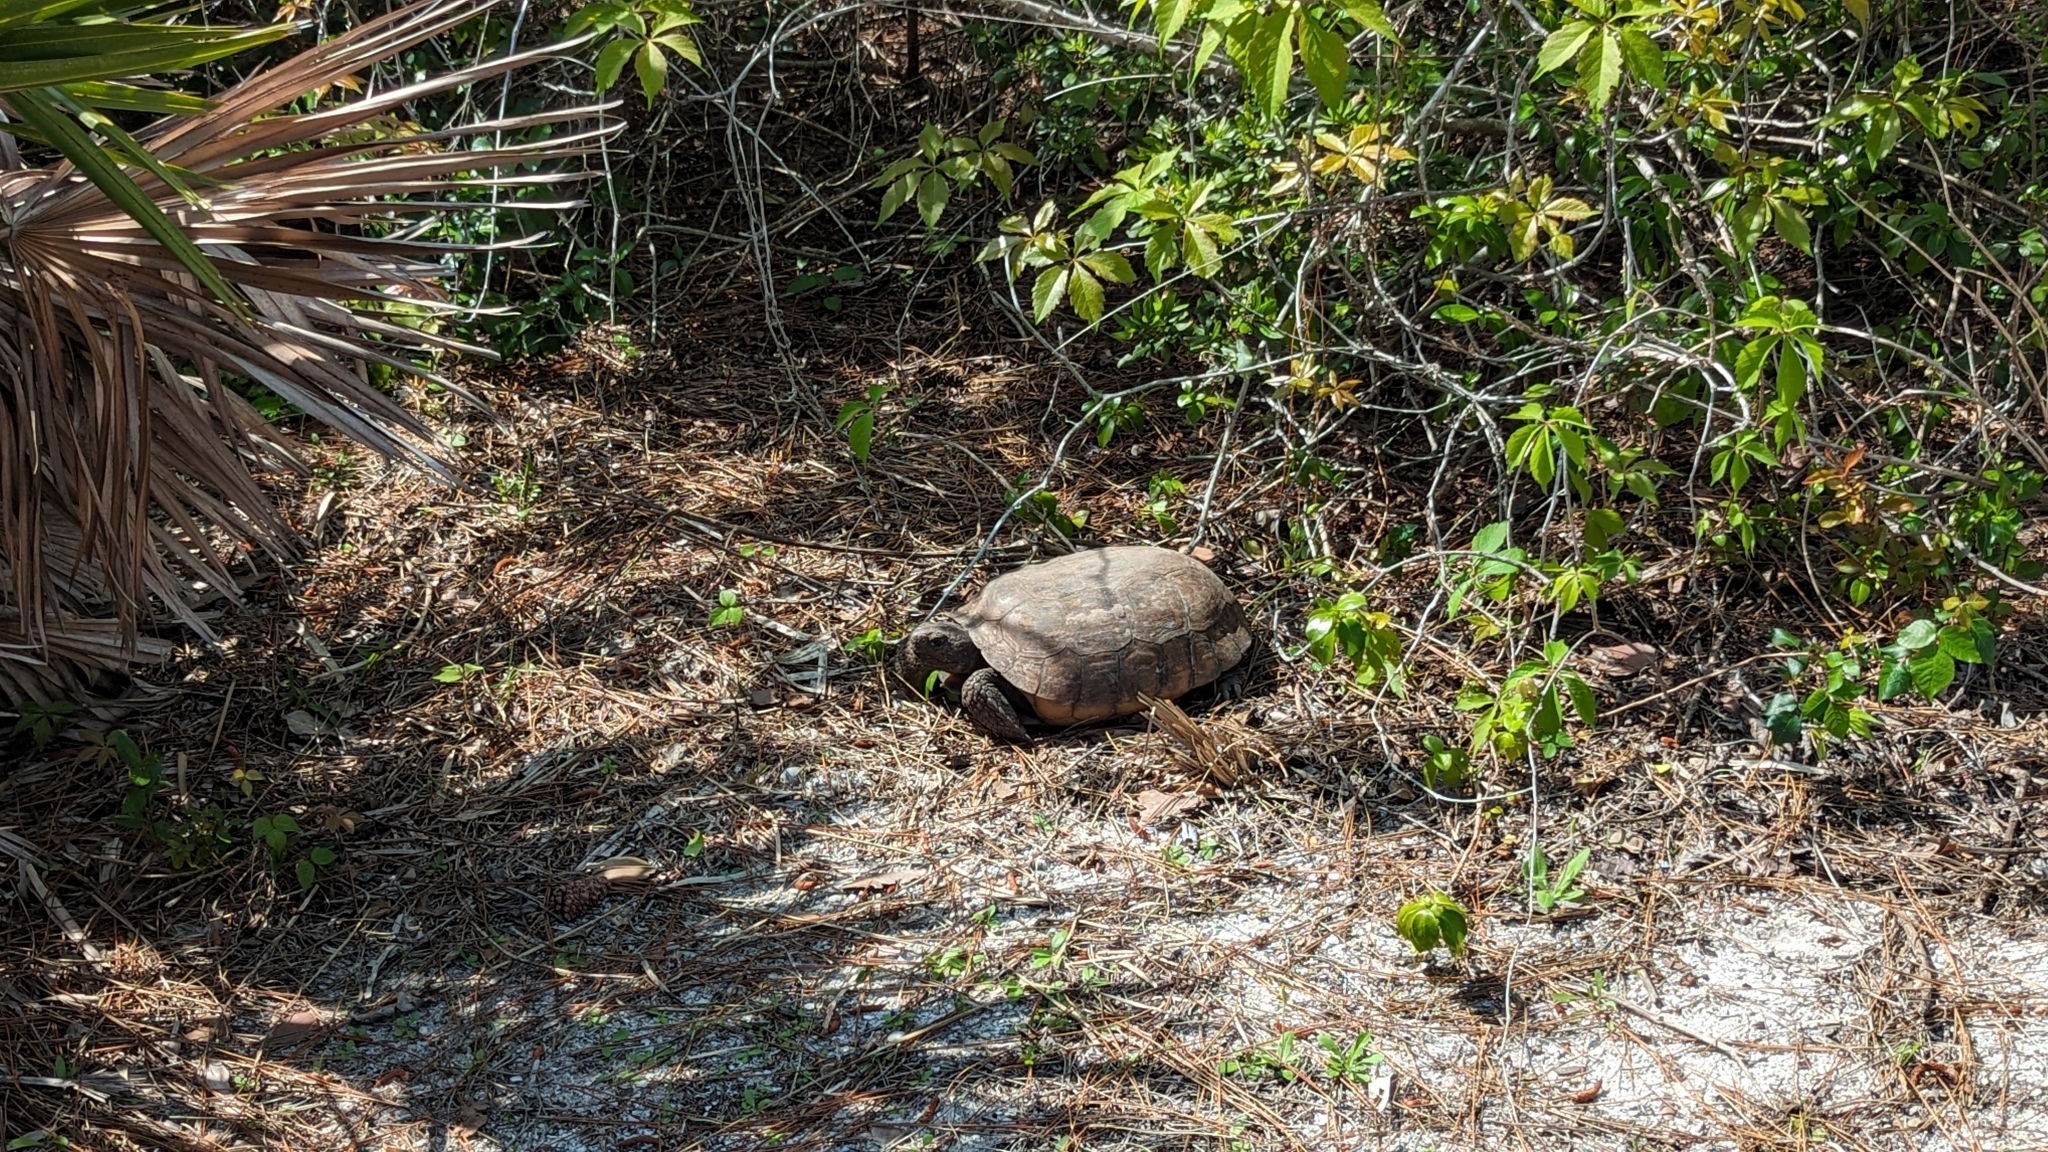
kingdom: Animalia
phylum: Chordata
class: Testudines
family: Testudinidae
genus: Gopherus
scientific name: Gopherus polyphemus
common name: Florida gopher tortoise
